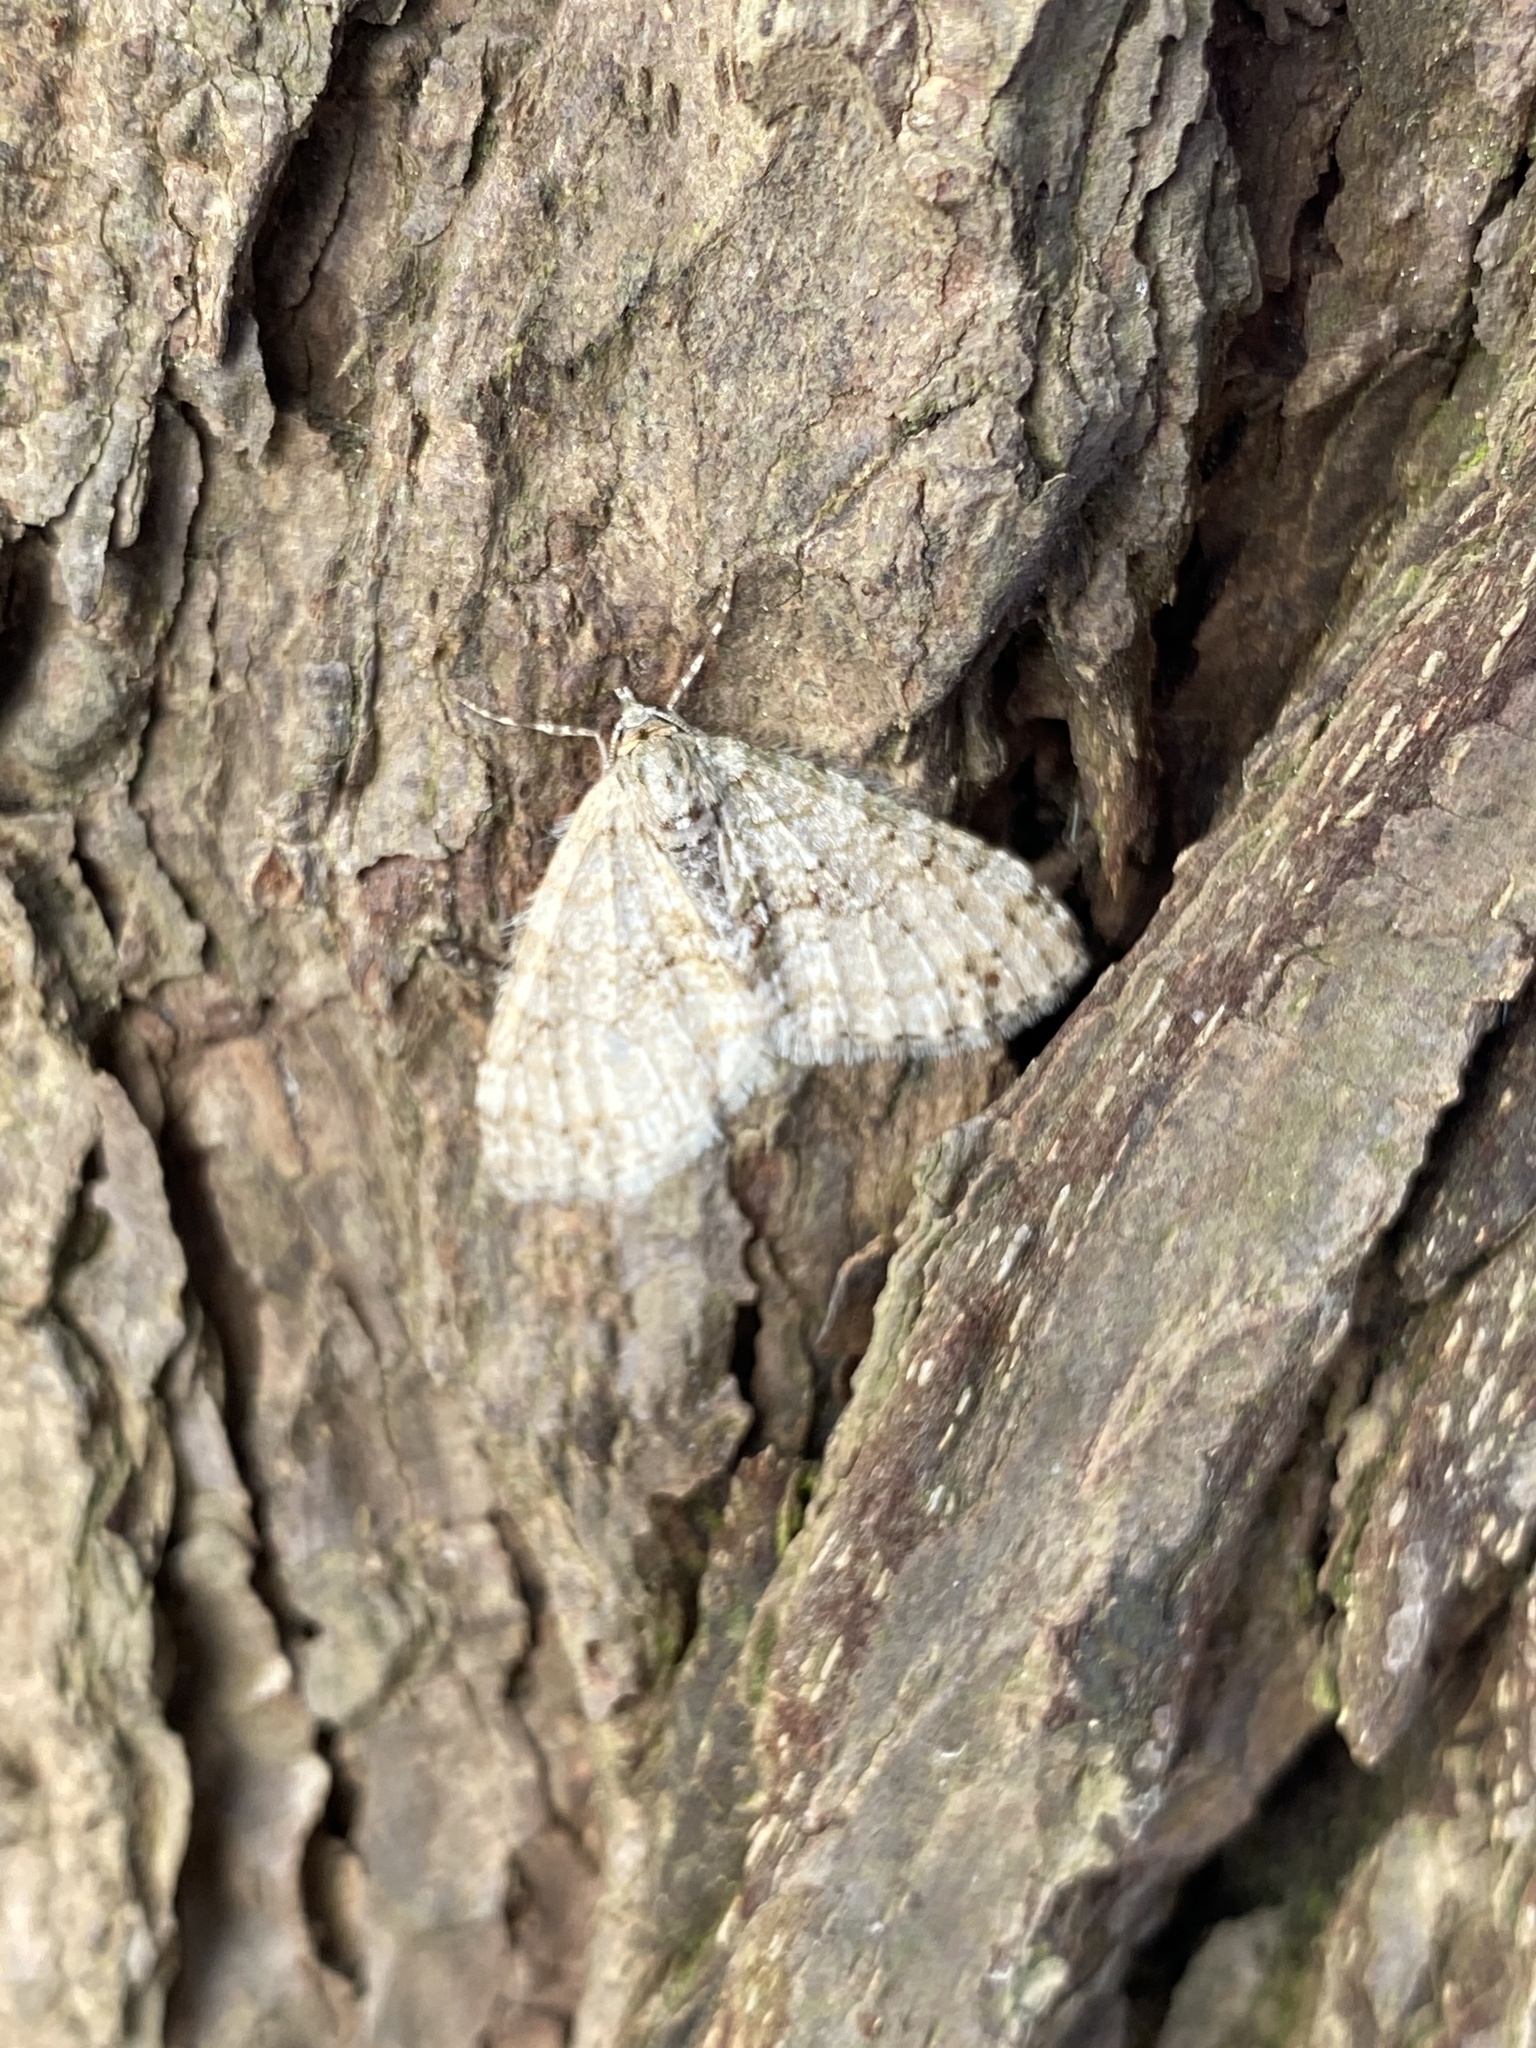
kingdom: Animalia
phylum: Arthropoda
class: Insecta
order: Lepidoptera
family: Geometridae
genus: Trichopterigia
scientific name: Trichopterigia consobrinaria
